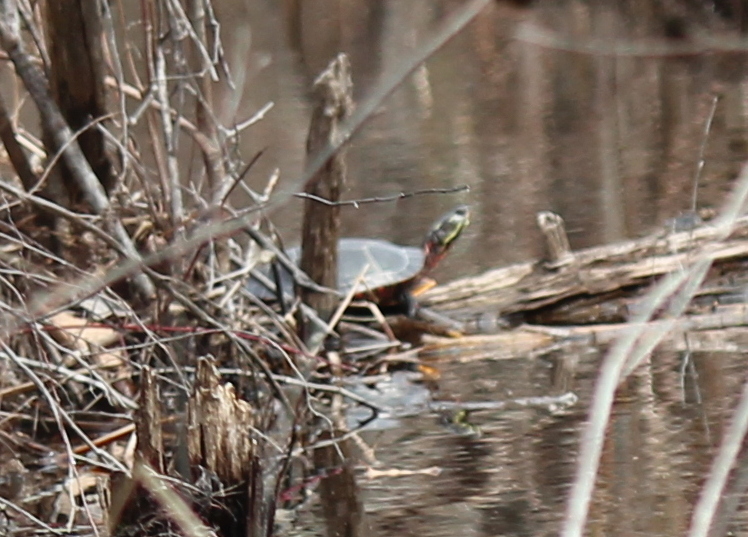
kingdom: Animalia
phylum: Chordata
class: Testudines
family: Emydidae
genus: Chrysemys
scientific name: Chrysemys picta
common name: Painted turtle
